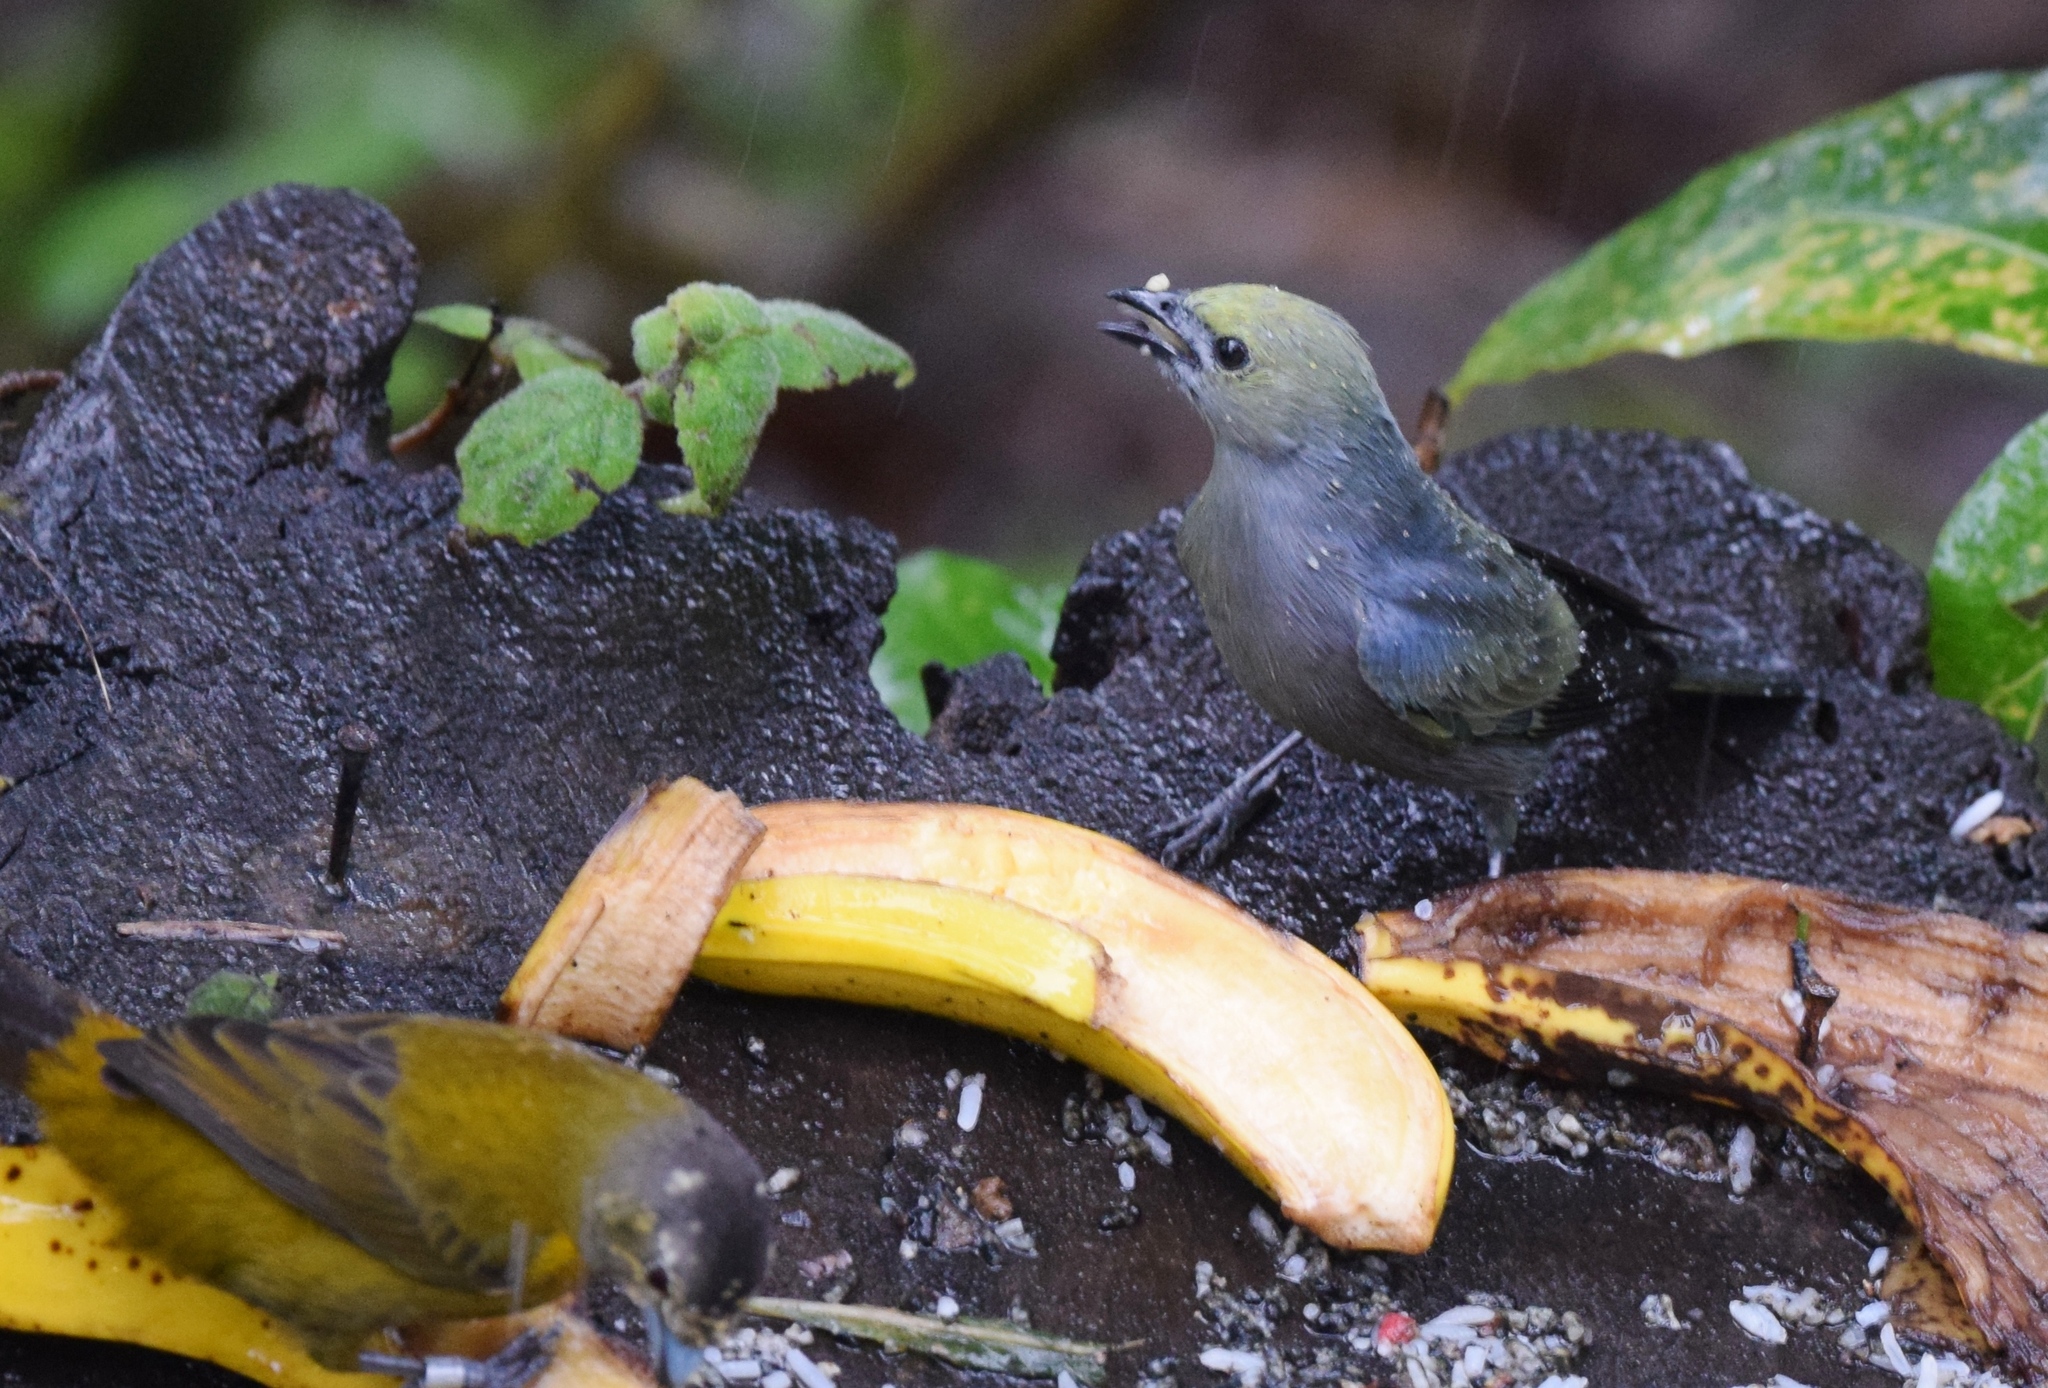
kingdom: Animalia
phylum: Chordata
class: Aves
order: Passeriformes
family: Thraupidae
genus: Thraupis
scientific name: Thraupis palmarum
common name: Palm tanager
